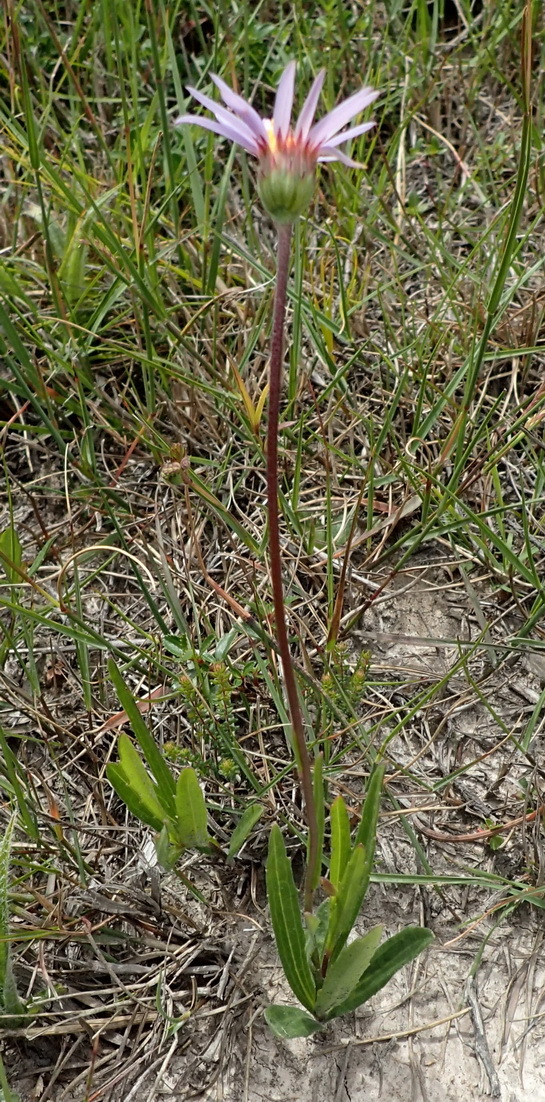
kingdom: Plantae
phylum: Tracheophyta
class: Magnoliopsida
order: Asterales
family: Asteraceae
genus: Afroaster
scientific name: Afroaster hispidus
